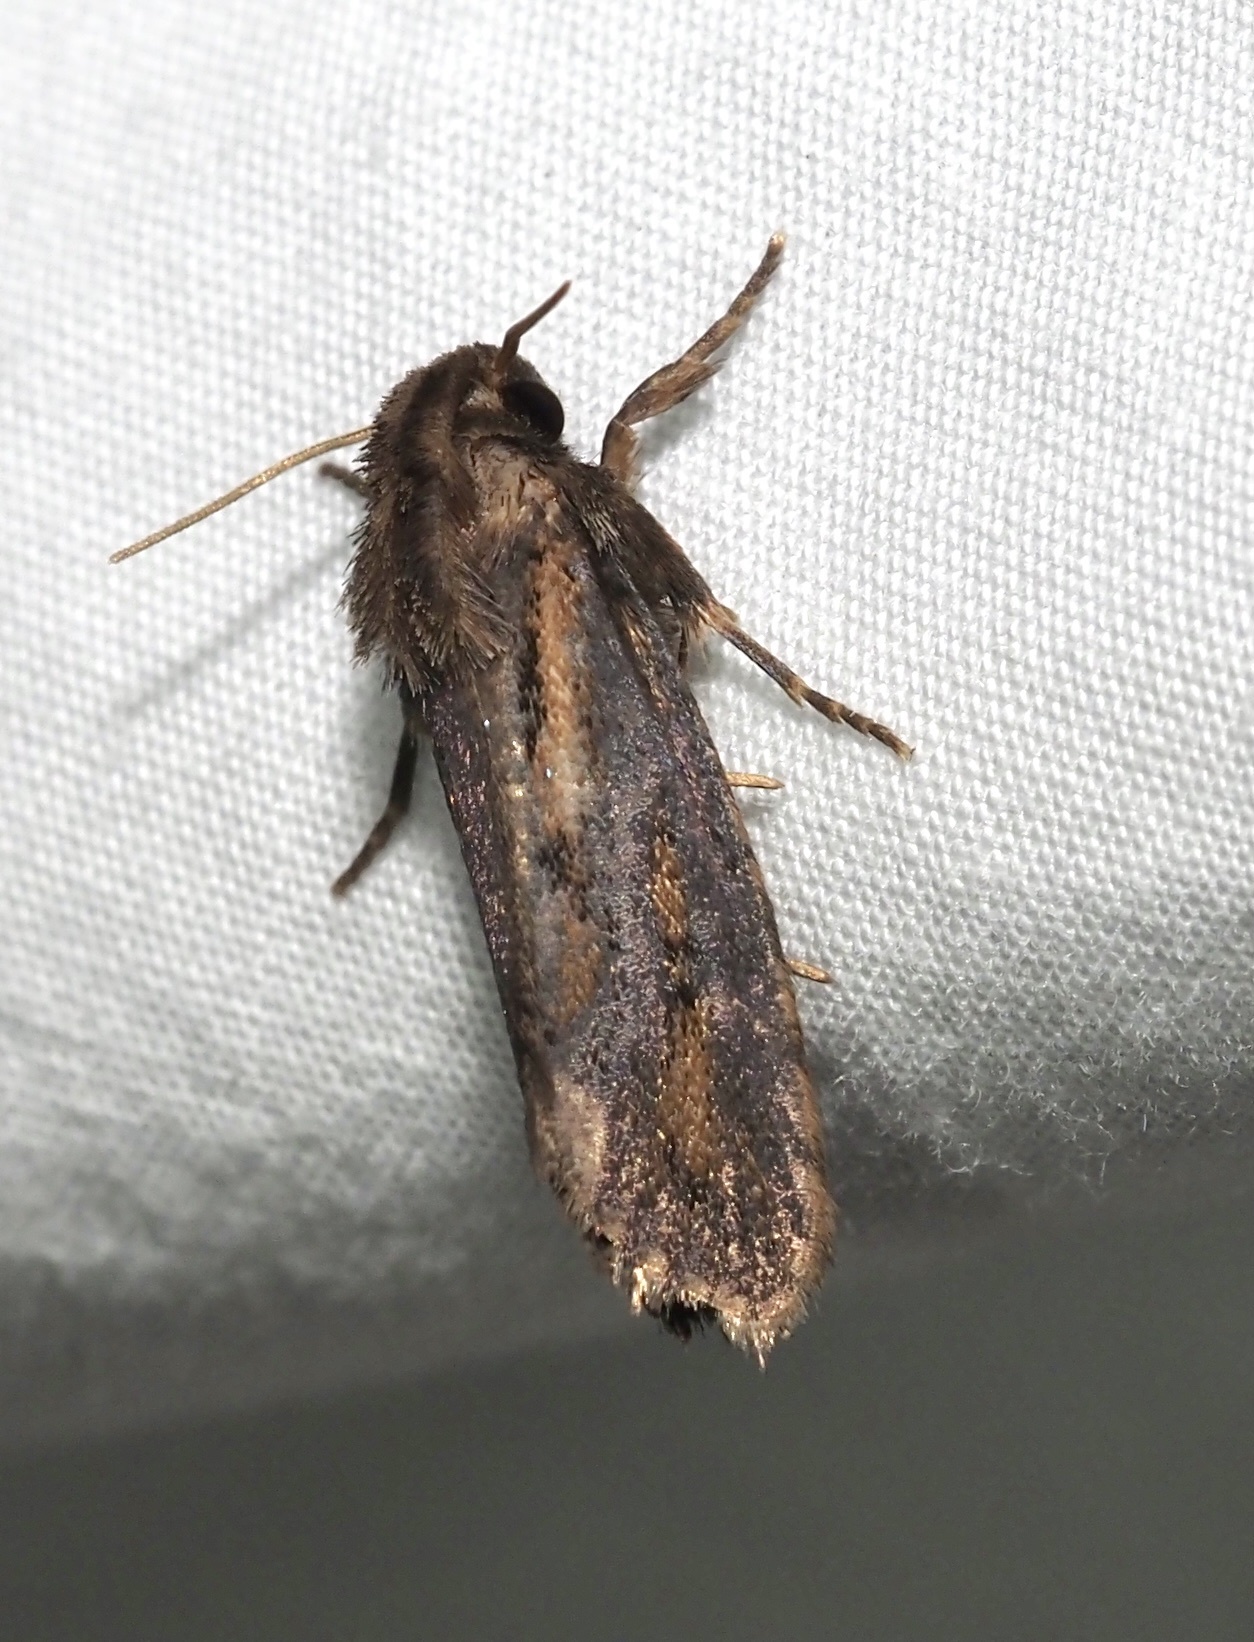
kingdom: Animalia
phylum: Arthropoda
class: Insecta
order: Lepidoptera
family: Tineidae
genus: Acrolophus
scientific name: Acrolophus popeanella
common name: Clemens' grass tubeworm moth
